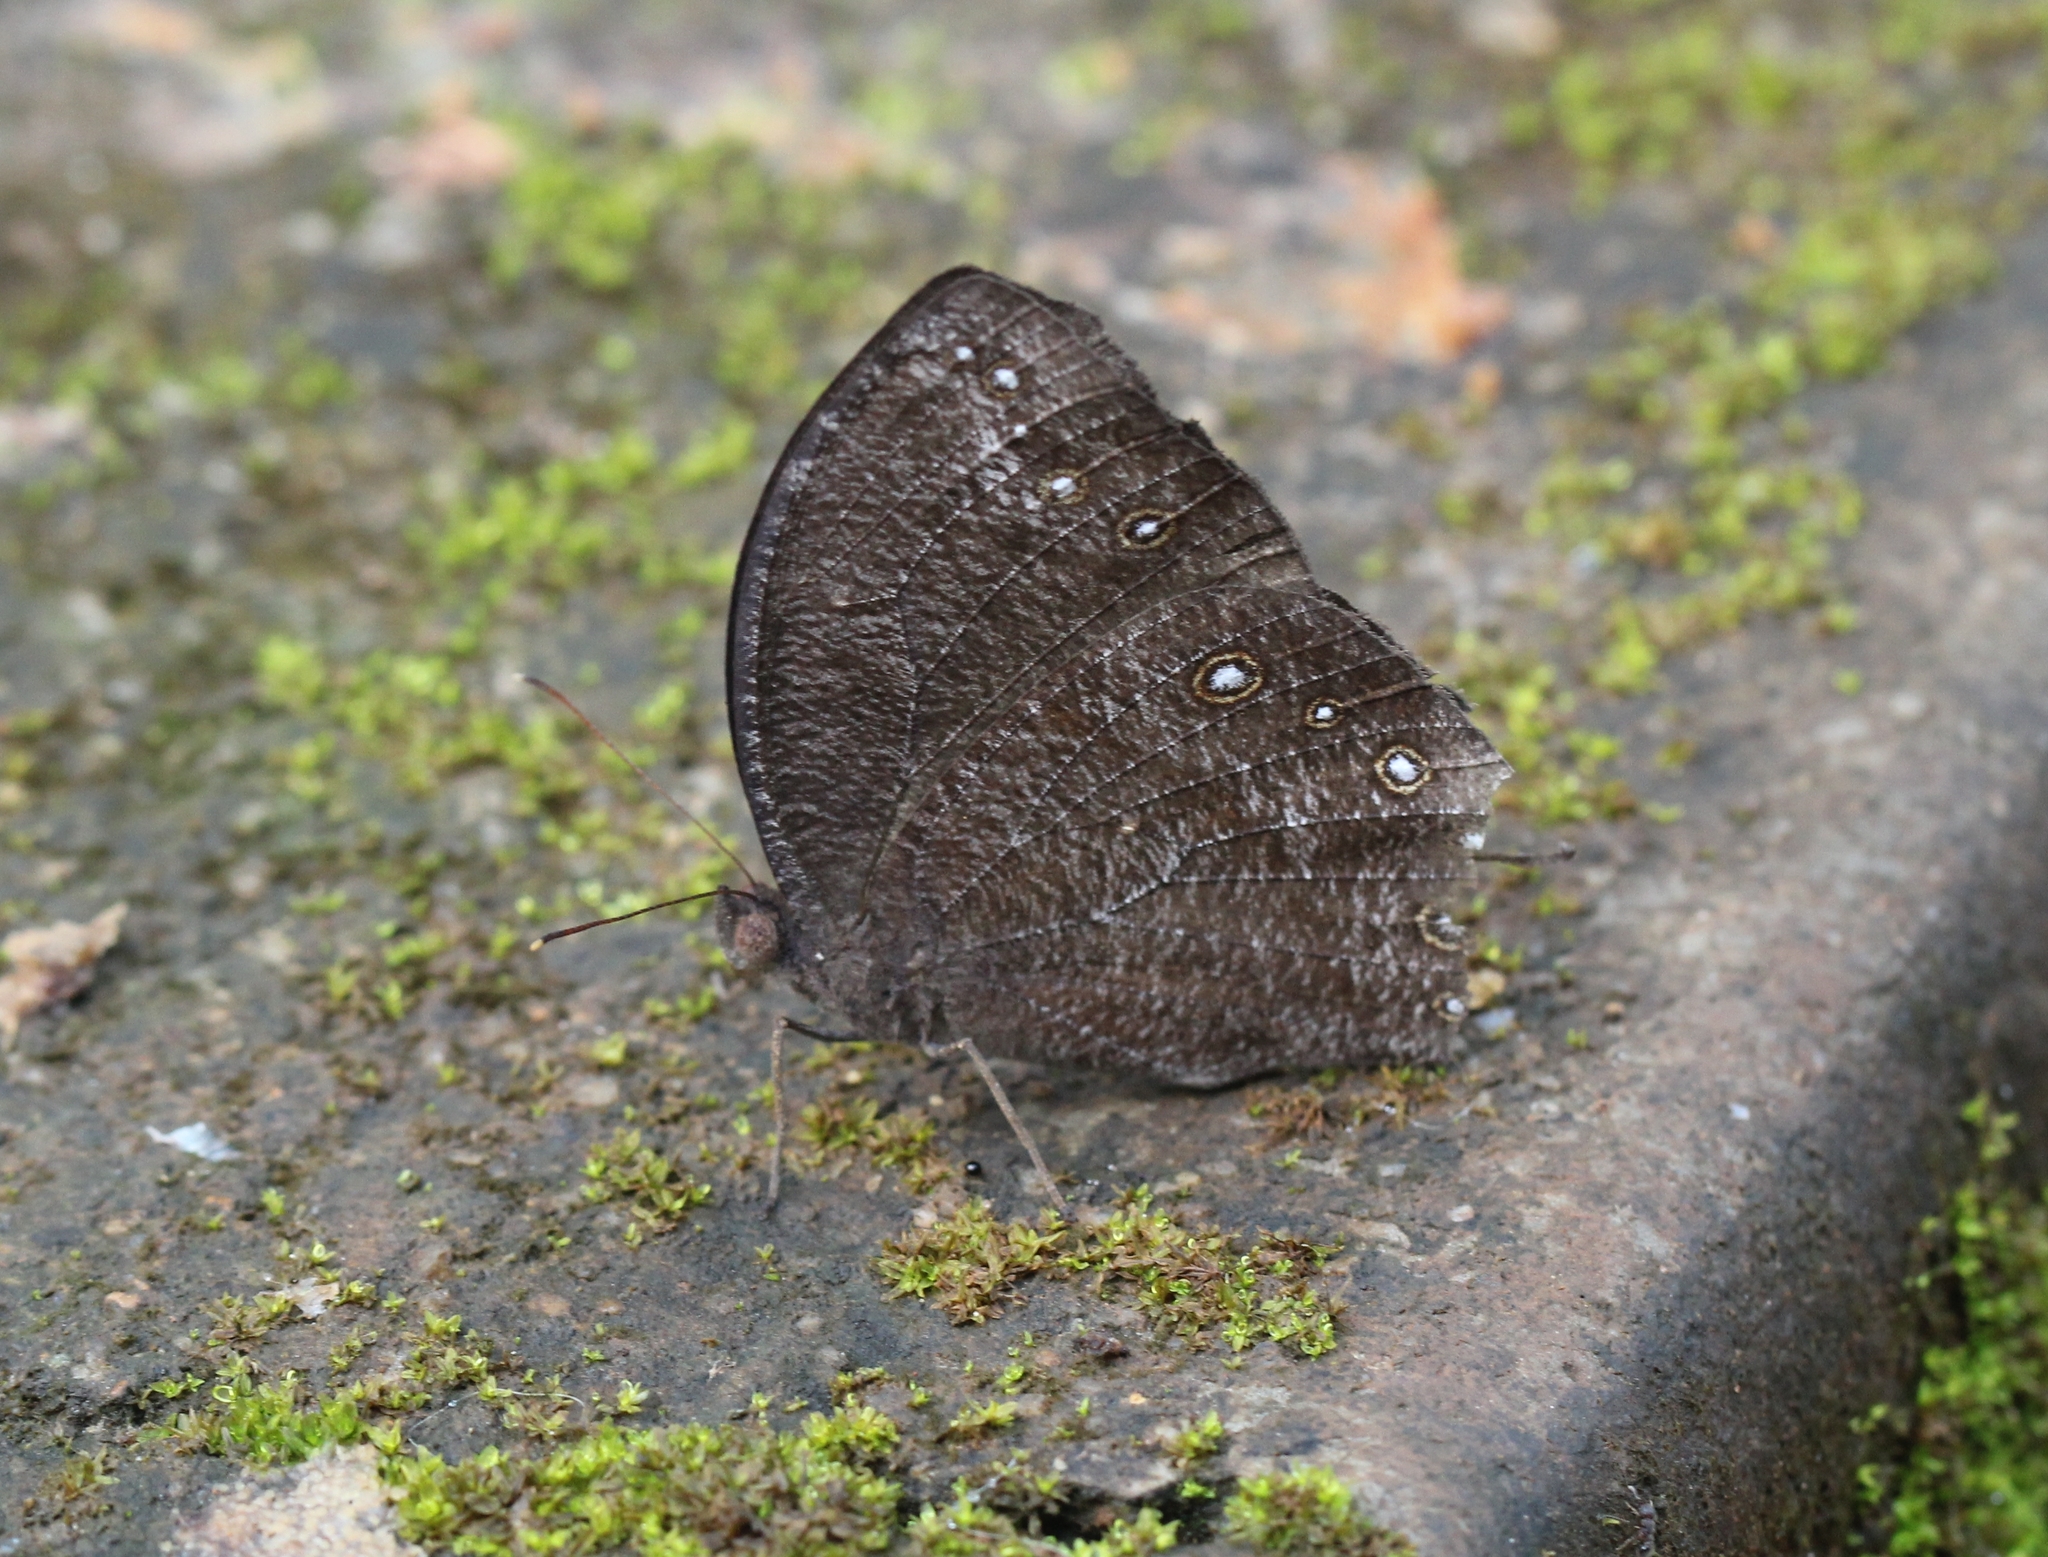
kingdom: Animalia
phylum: Arthropoda
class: Insecta
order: Lepidoptera
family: Nymphalidae
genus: Melanitis
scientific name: Melanitis phedima
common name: Dark evening brown
